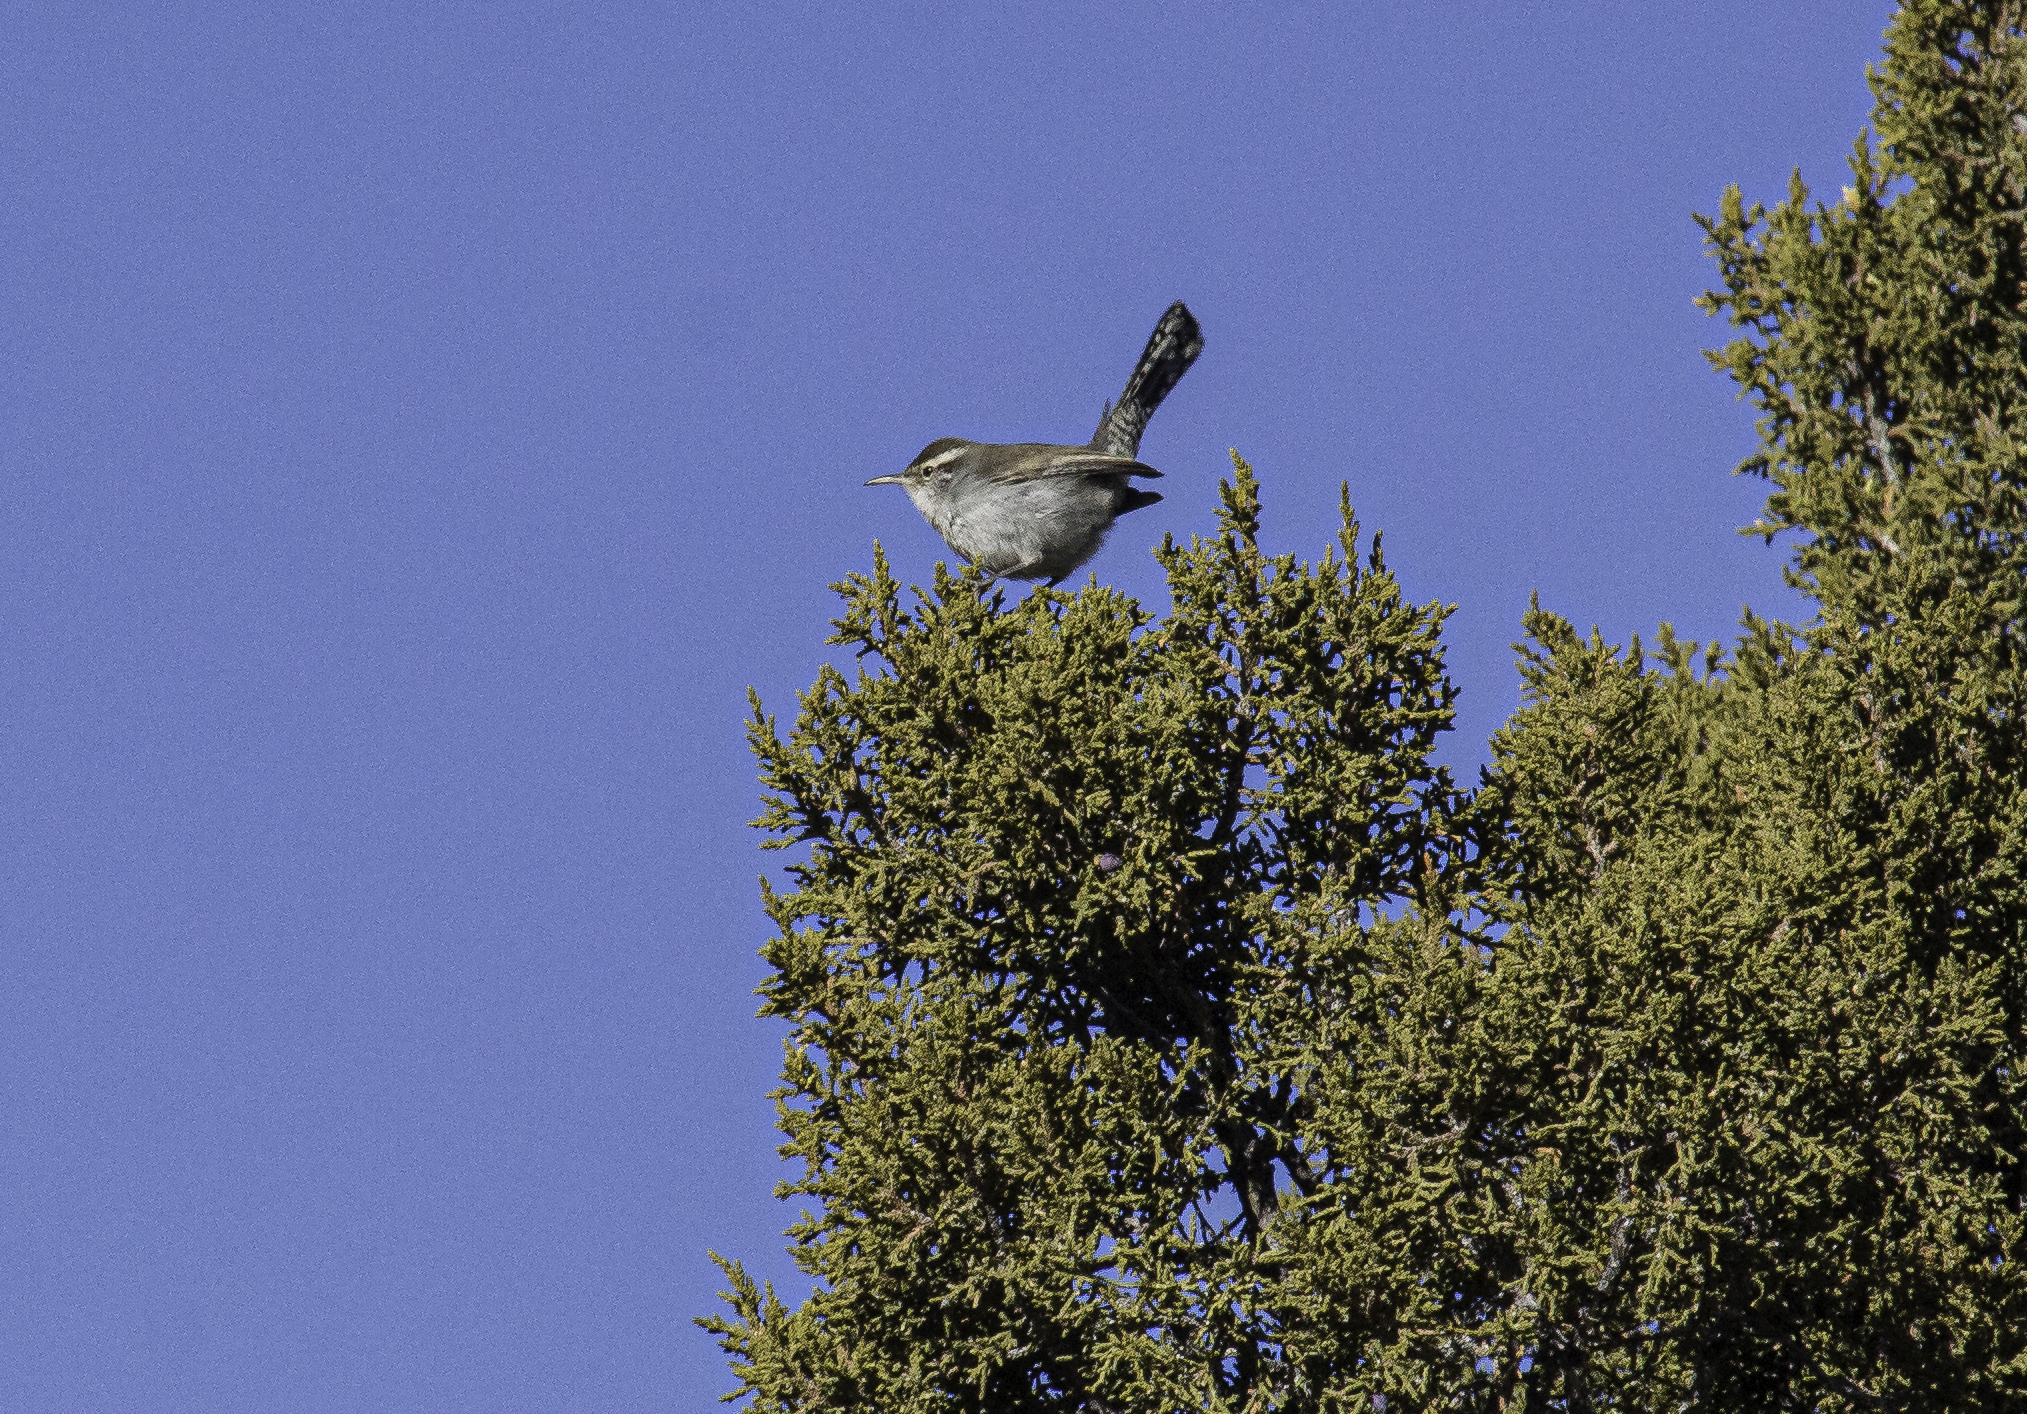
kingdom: Animalia
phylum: Chordata
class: Aves
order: Passeriformes
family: Troglodytidae
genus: Thryomanes
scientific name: Thryomanes bewickii
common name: Bewick's wren
